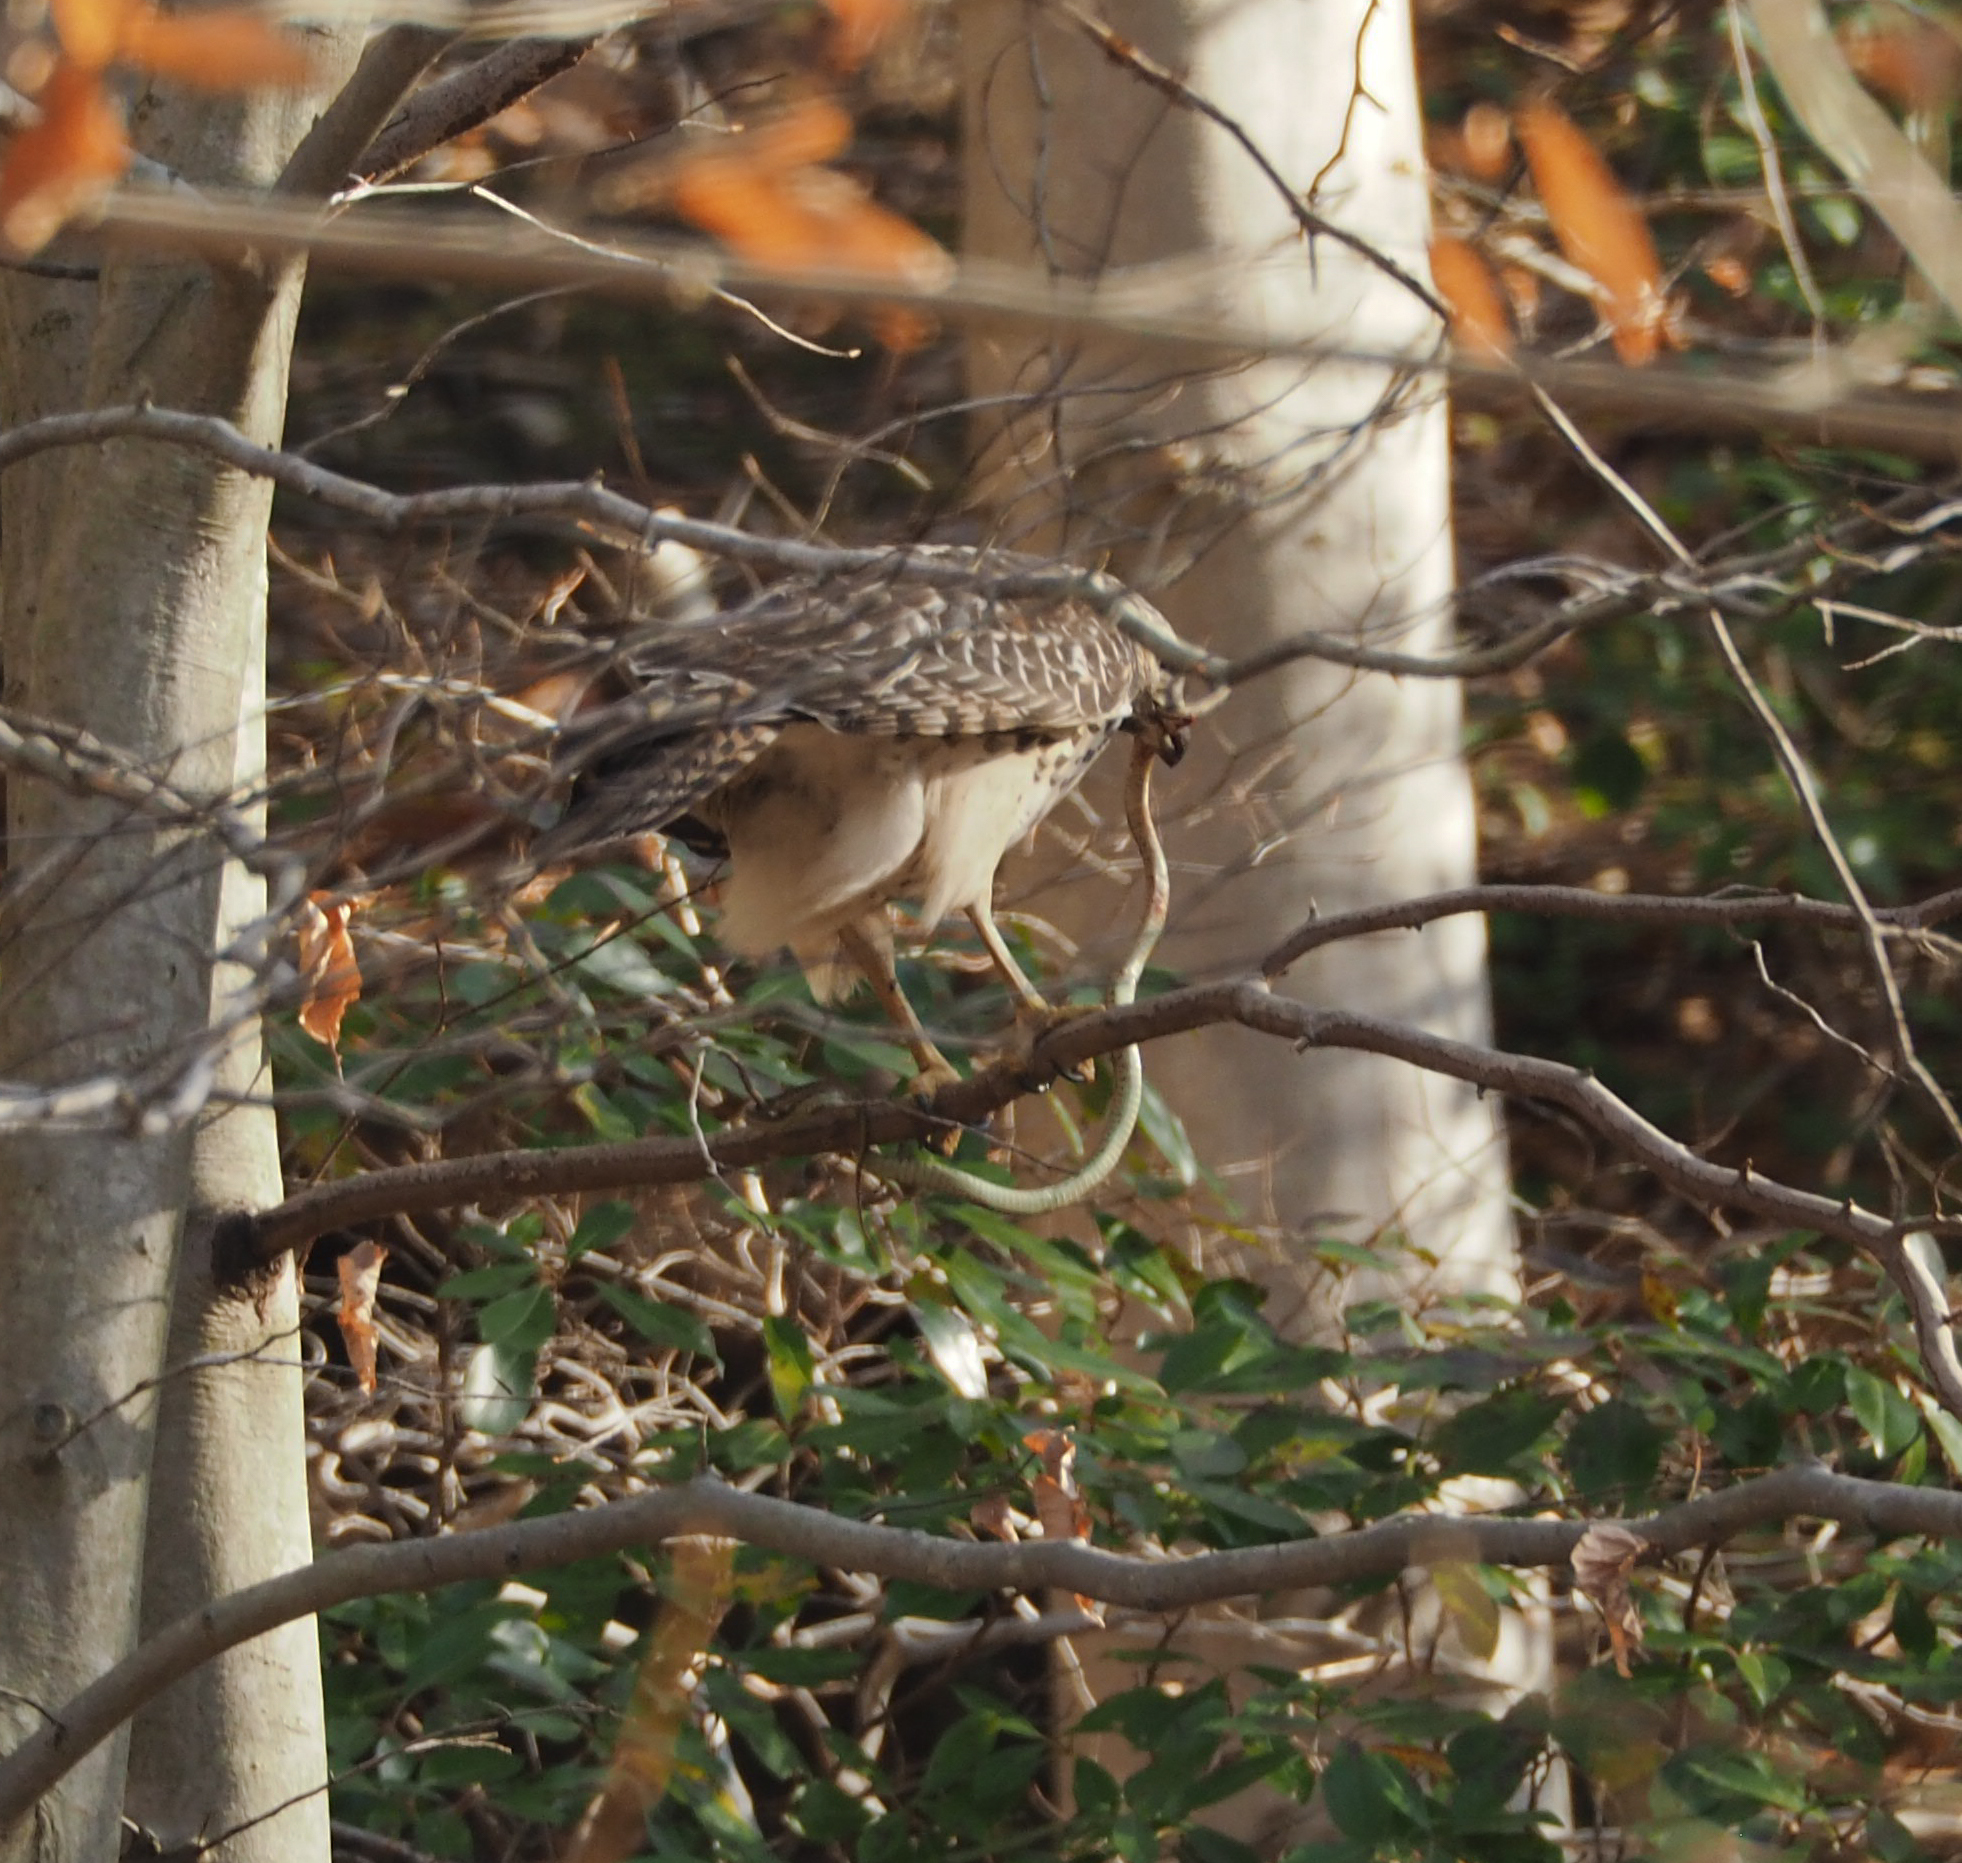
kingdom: Animalia
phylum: Chordata
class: Aves
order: Accipitriformes
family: Accipitridae
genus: Buteo
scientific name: Buteo lineatus
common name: Red-shouldered hawk
